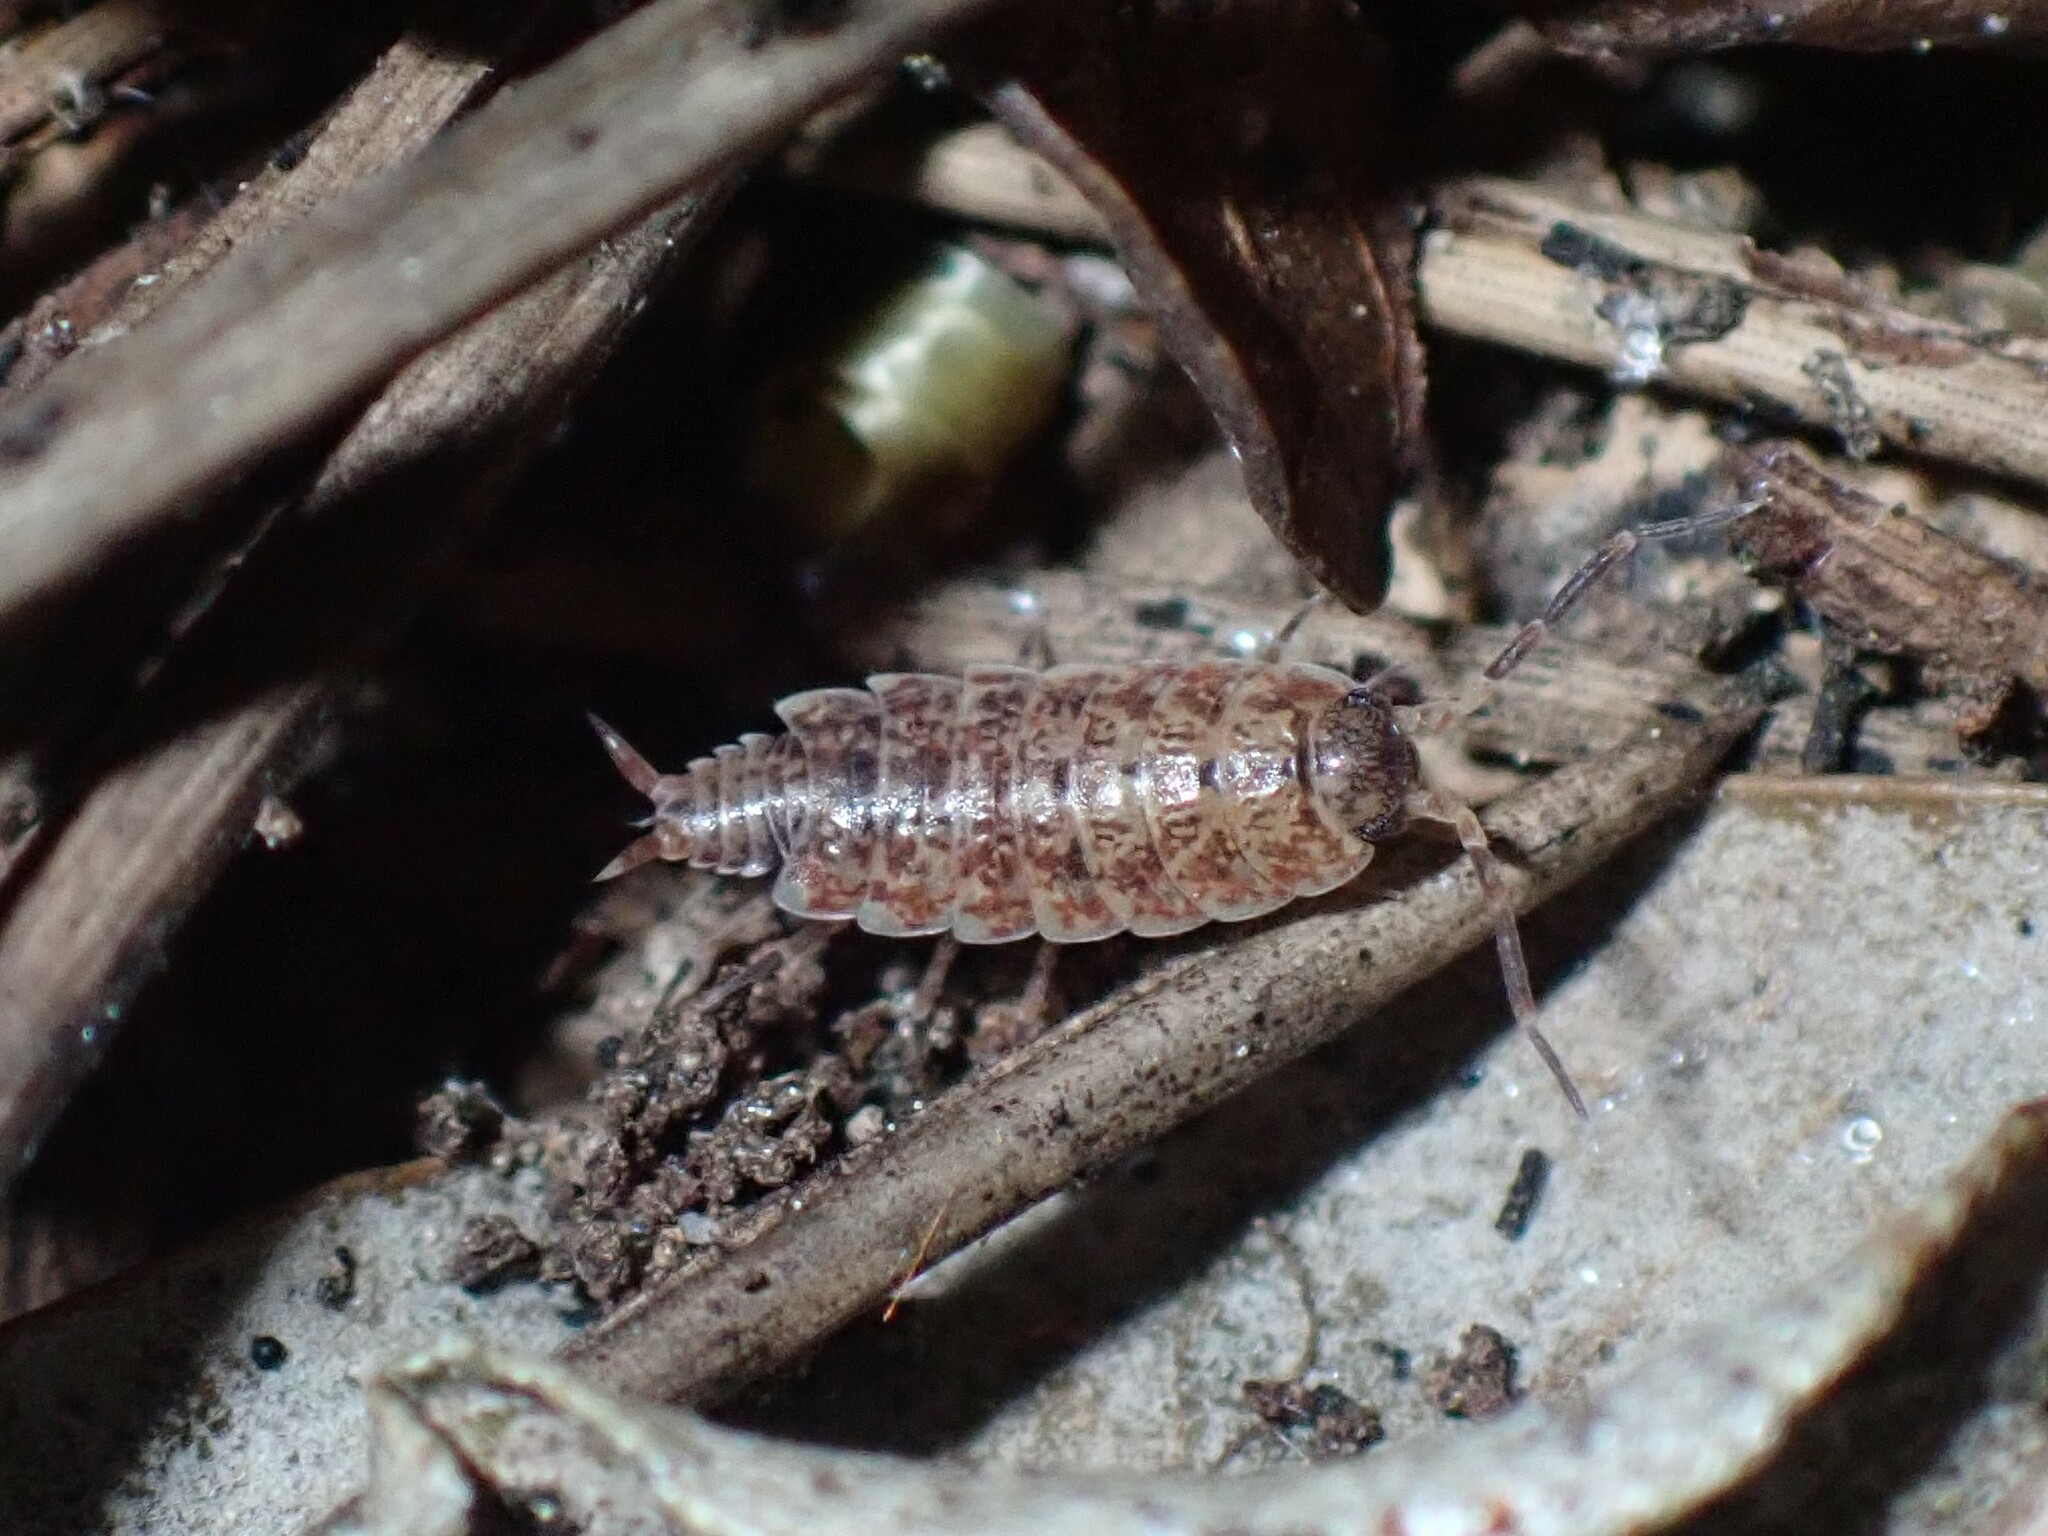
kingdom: Animalia
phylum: Arthropoda
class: Malacostraca
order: Isopoda
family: Porcellionidae
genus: Porcellionides
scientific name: Porcellionides cingendus
